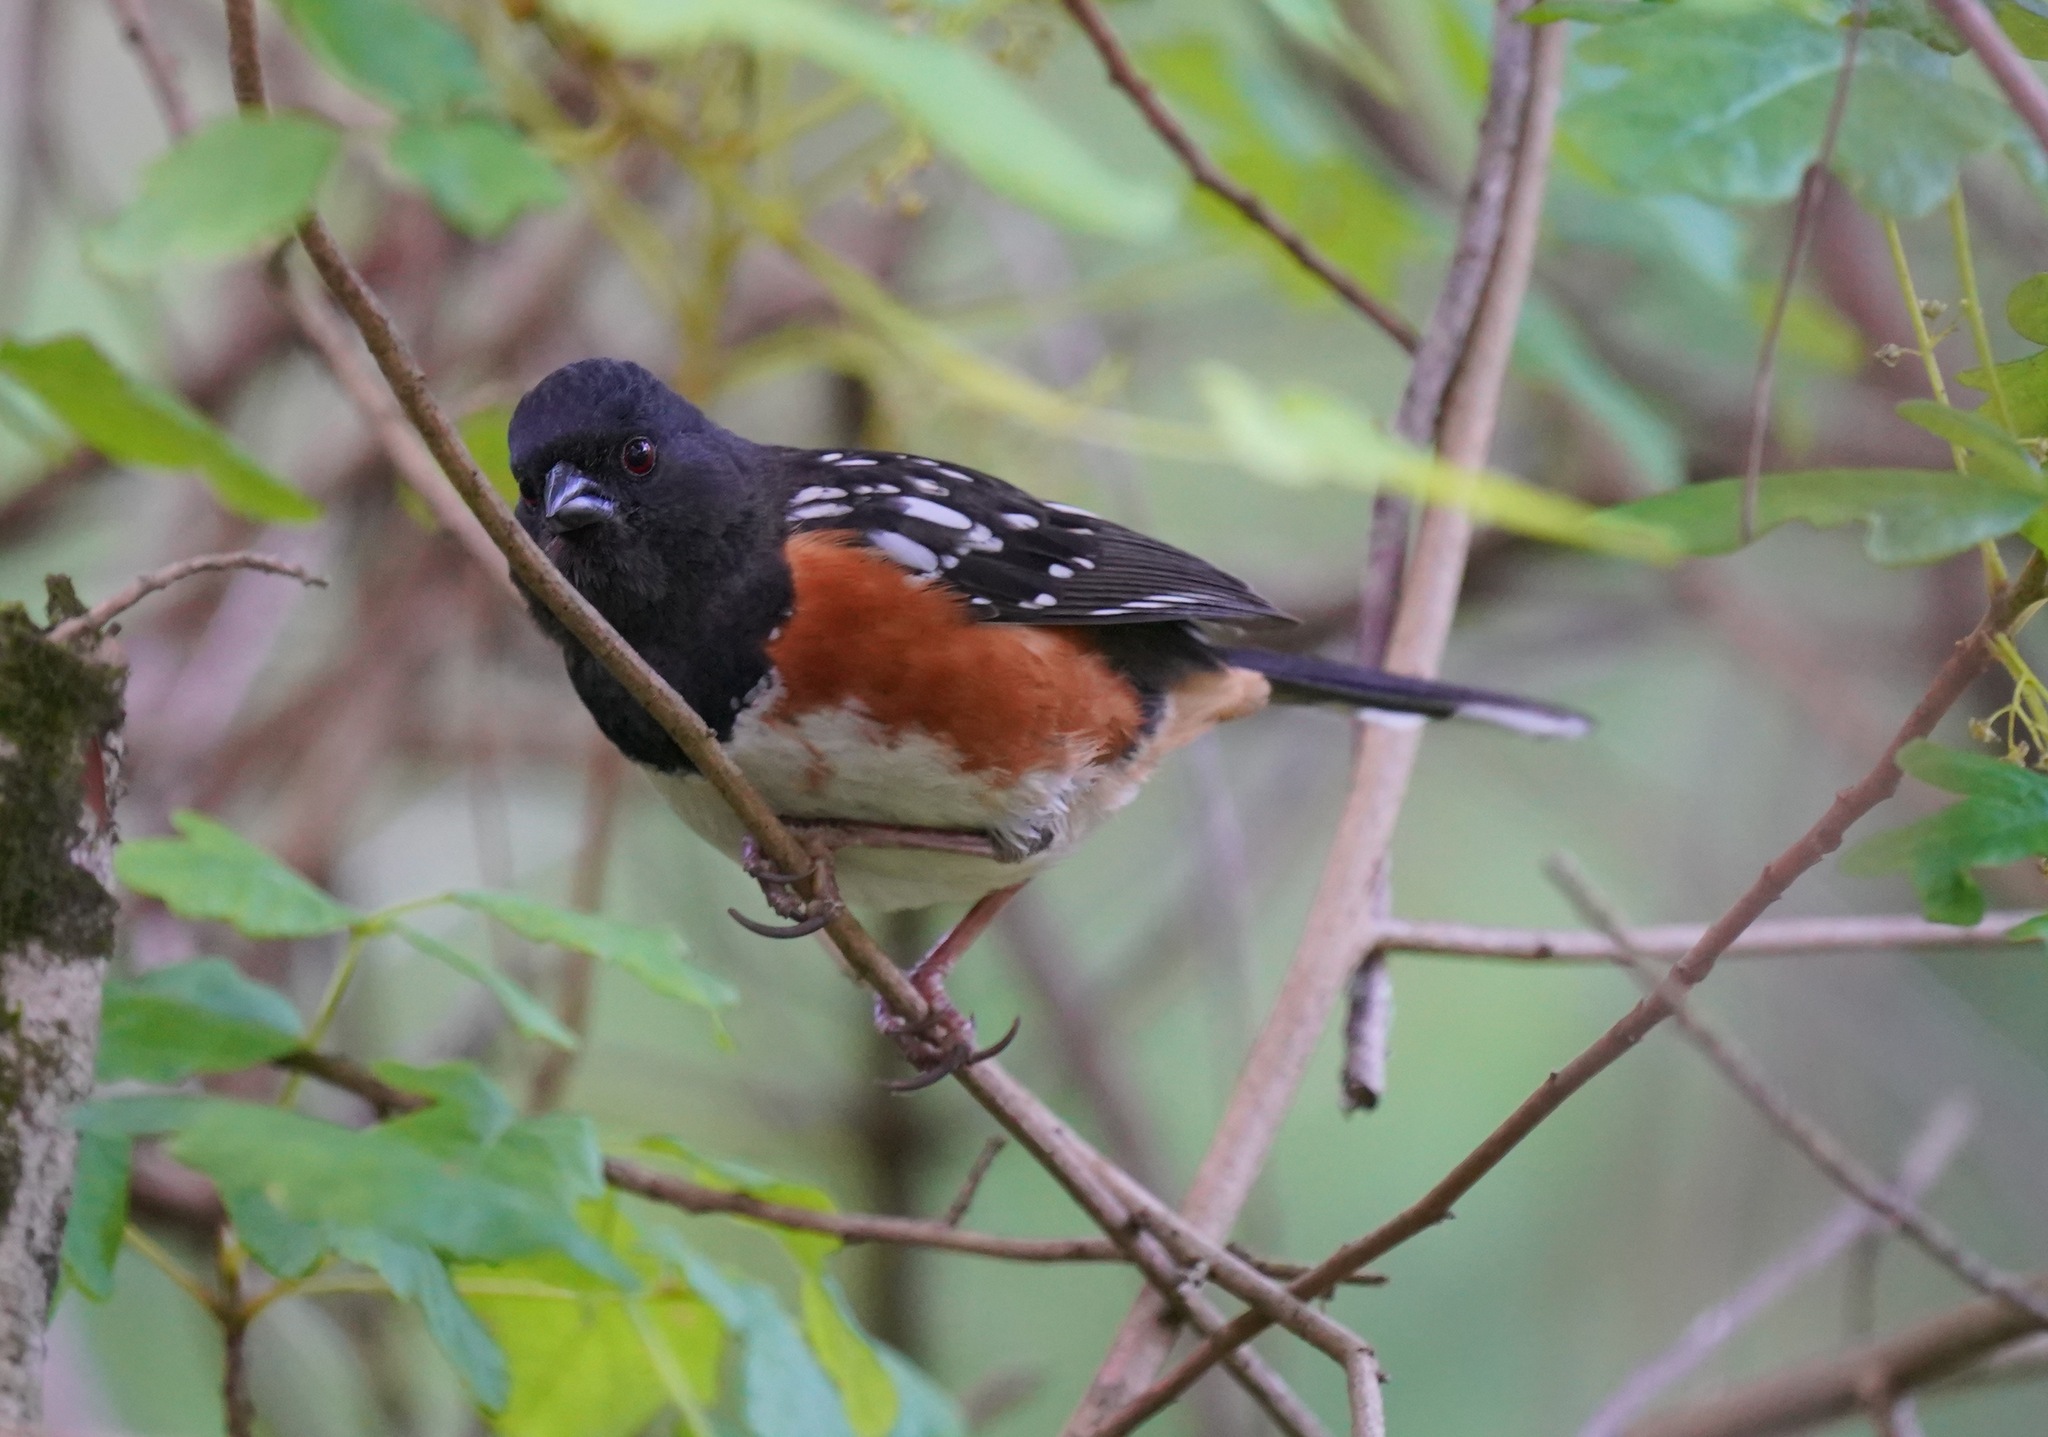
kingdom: Animalia
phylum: Chordata
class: Aves
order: Passeriformes
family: Passerellidae
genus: Pipilo
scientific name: Pipilo maculatus
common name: Spotted towhee
